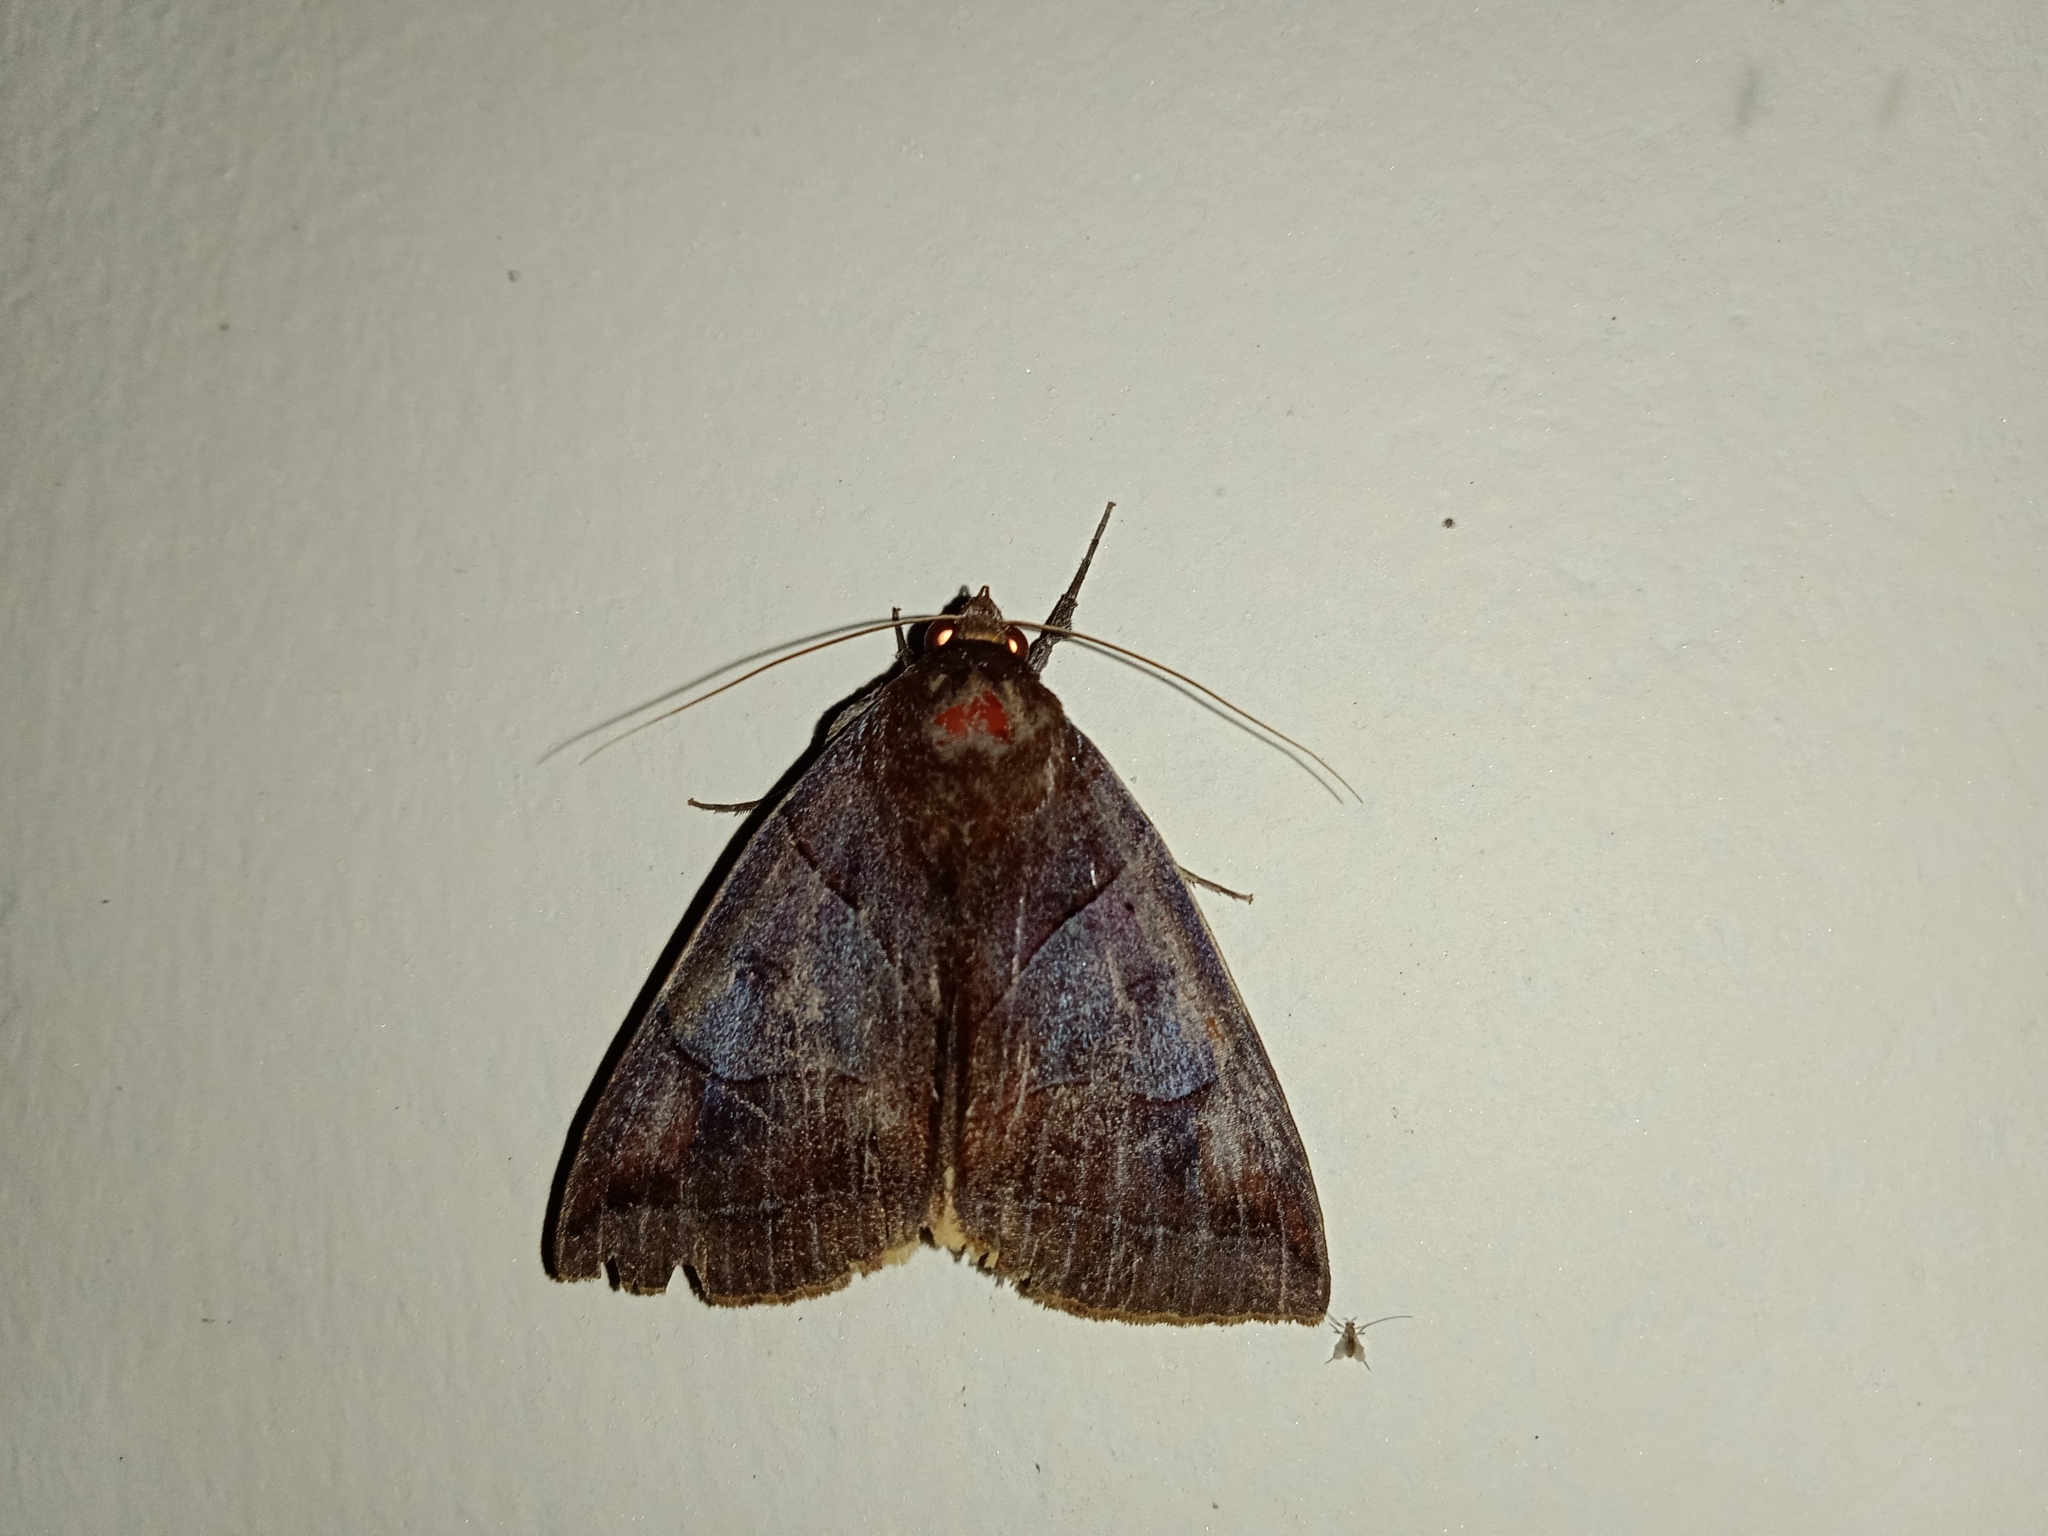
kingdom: Animalia
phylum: Arthropoda
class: Insecta
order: Lepidoptera
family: Erebidae
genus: Artena
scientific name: Artena submira
